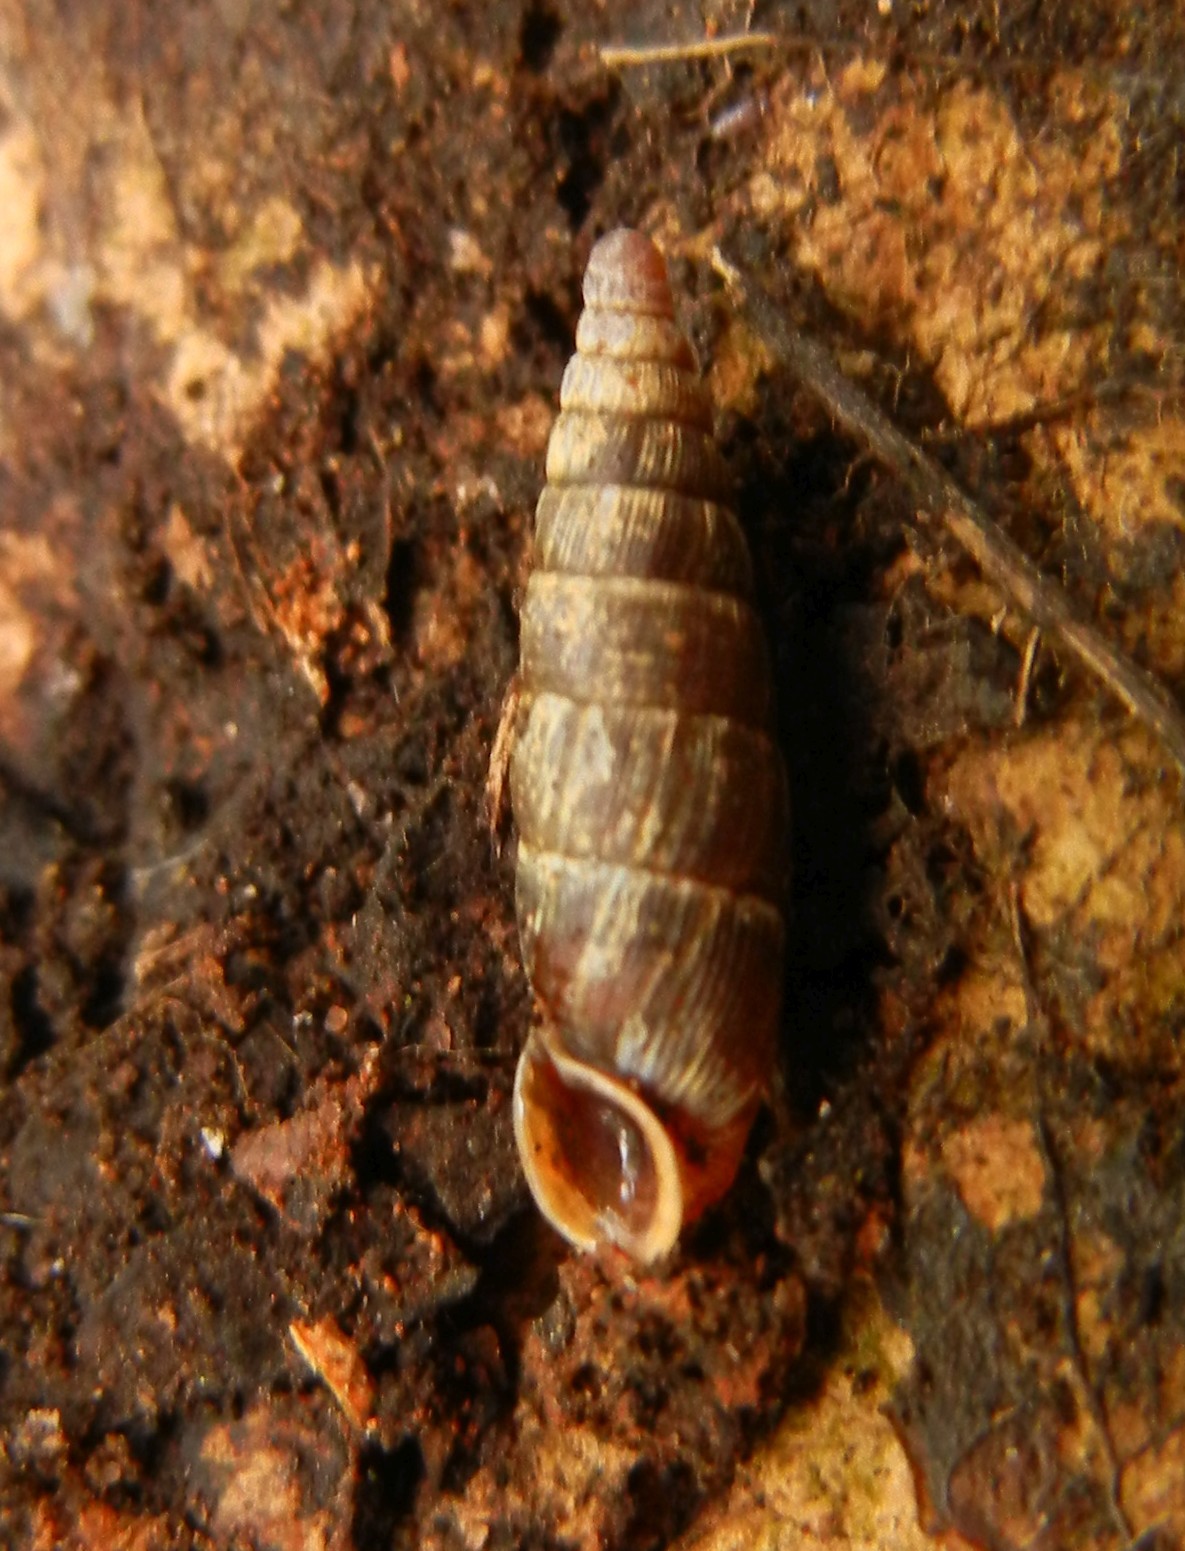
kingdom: Animalia
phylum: Mollusca
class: Gastropoda
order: Stylommatophora
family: Clausiliidae
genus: Clausilia
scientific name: Clausilia bidentata
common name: Two-toothed door snail
